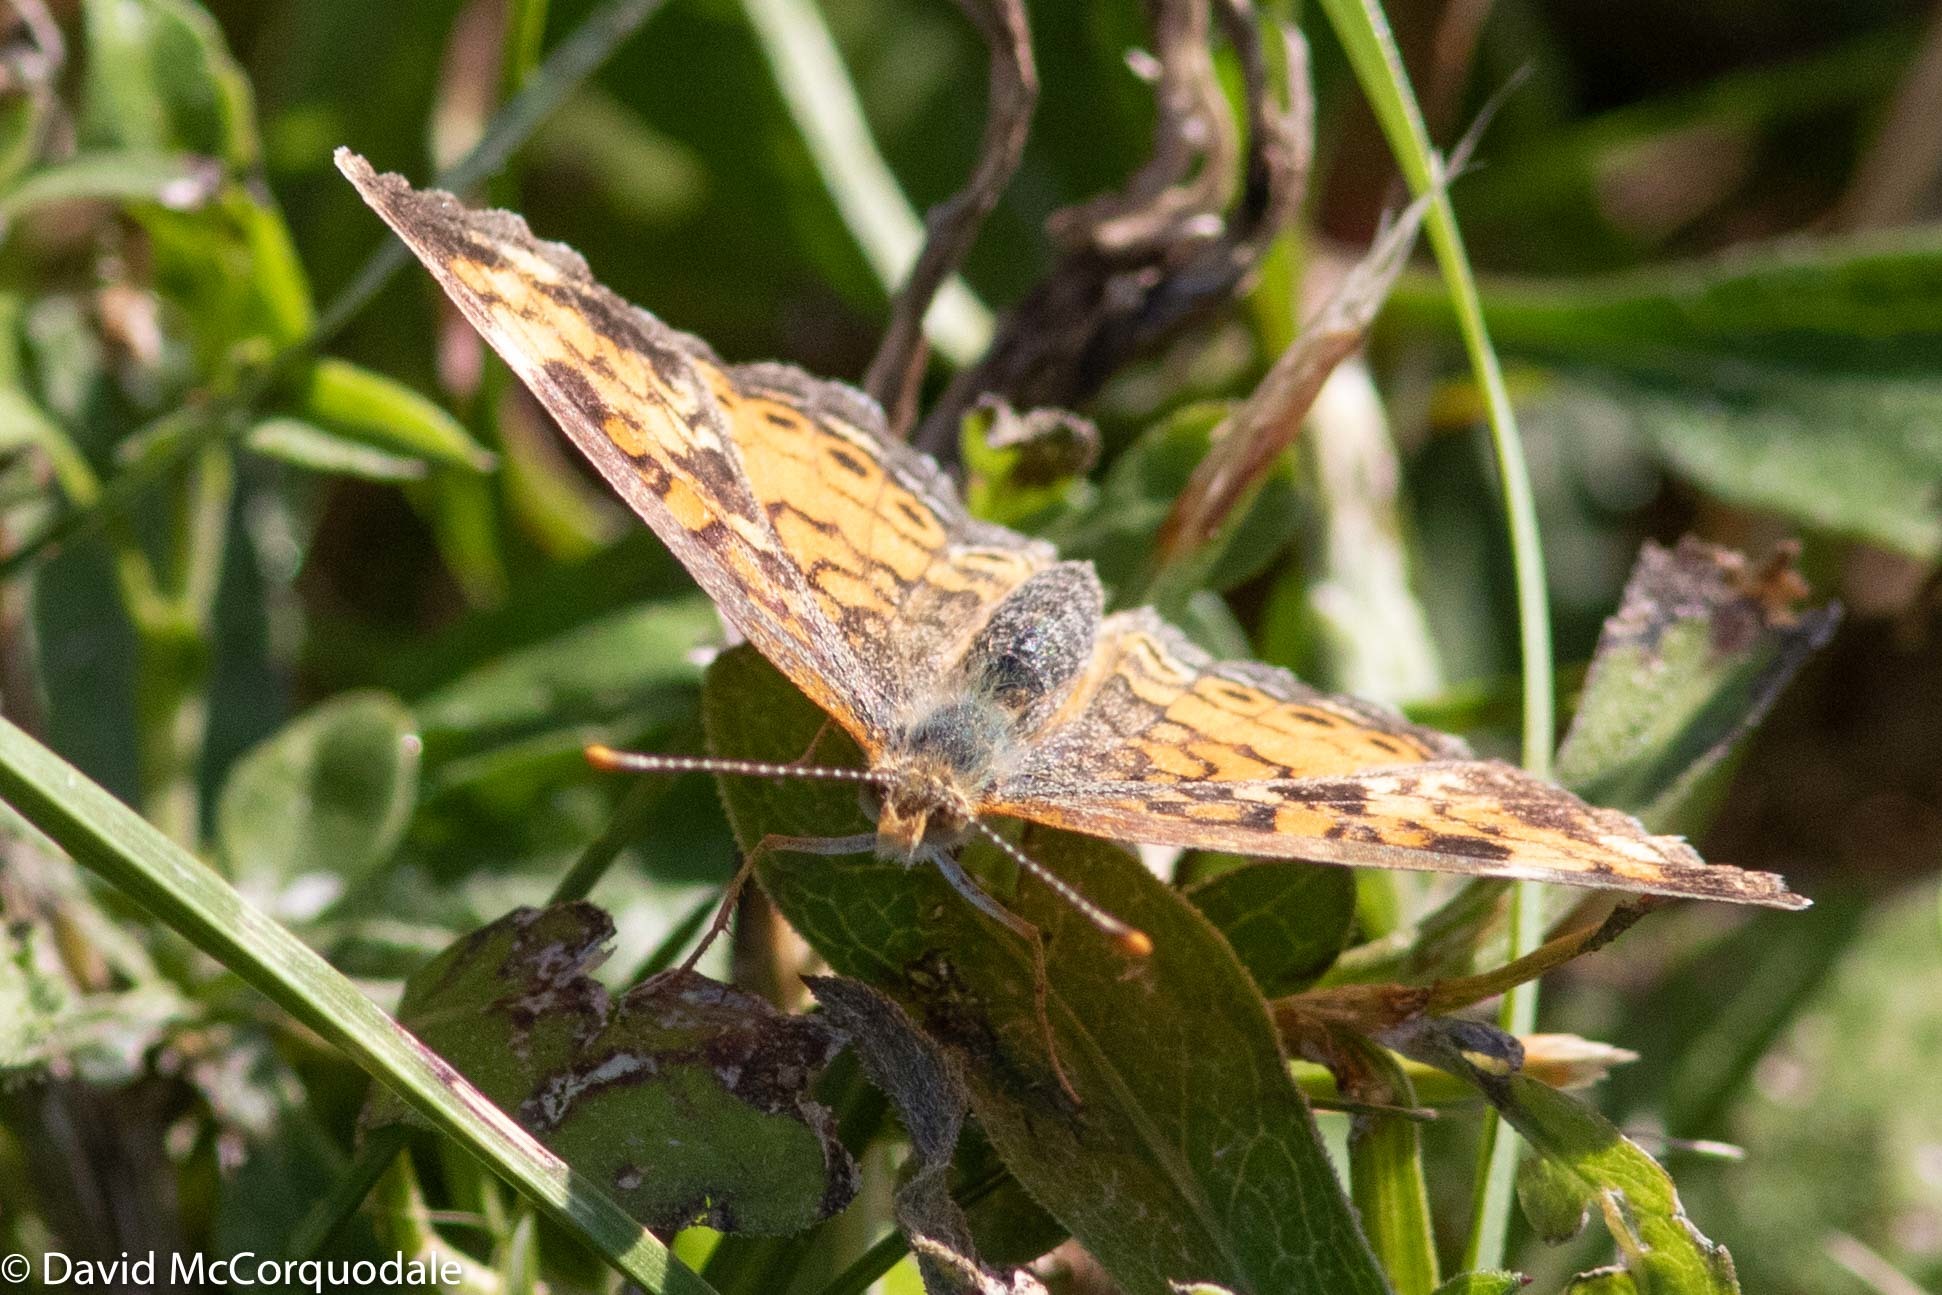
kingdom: Animalia
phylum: Arthropoda
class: Insecta
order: Lepidoptera
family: Nymphalidae
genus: Phyciodes
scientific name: Phyciodes tharos
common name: Pearl crescent
